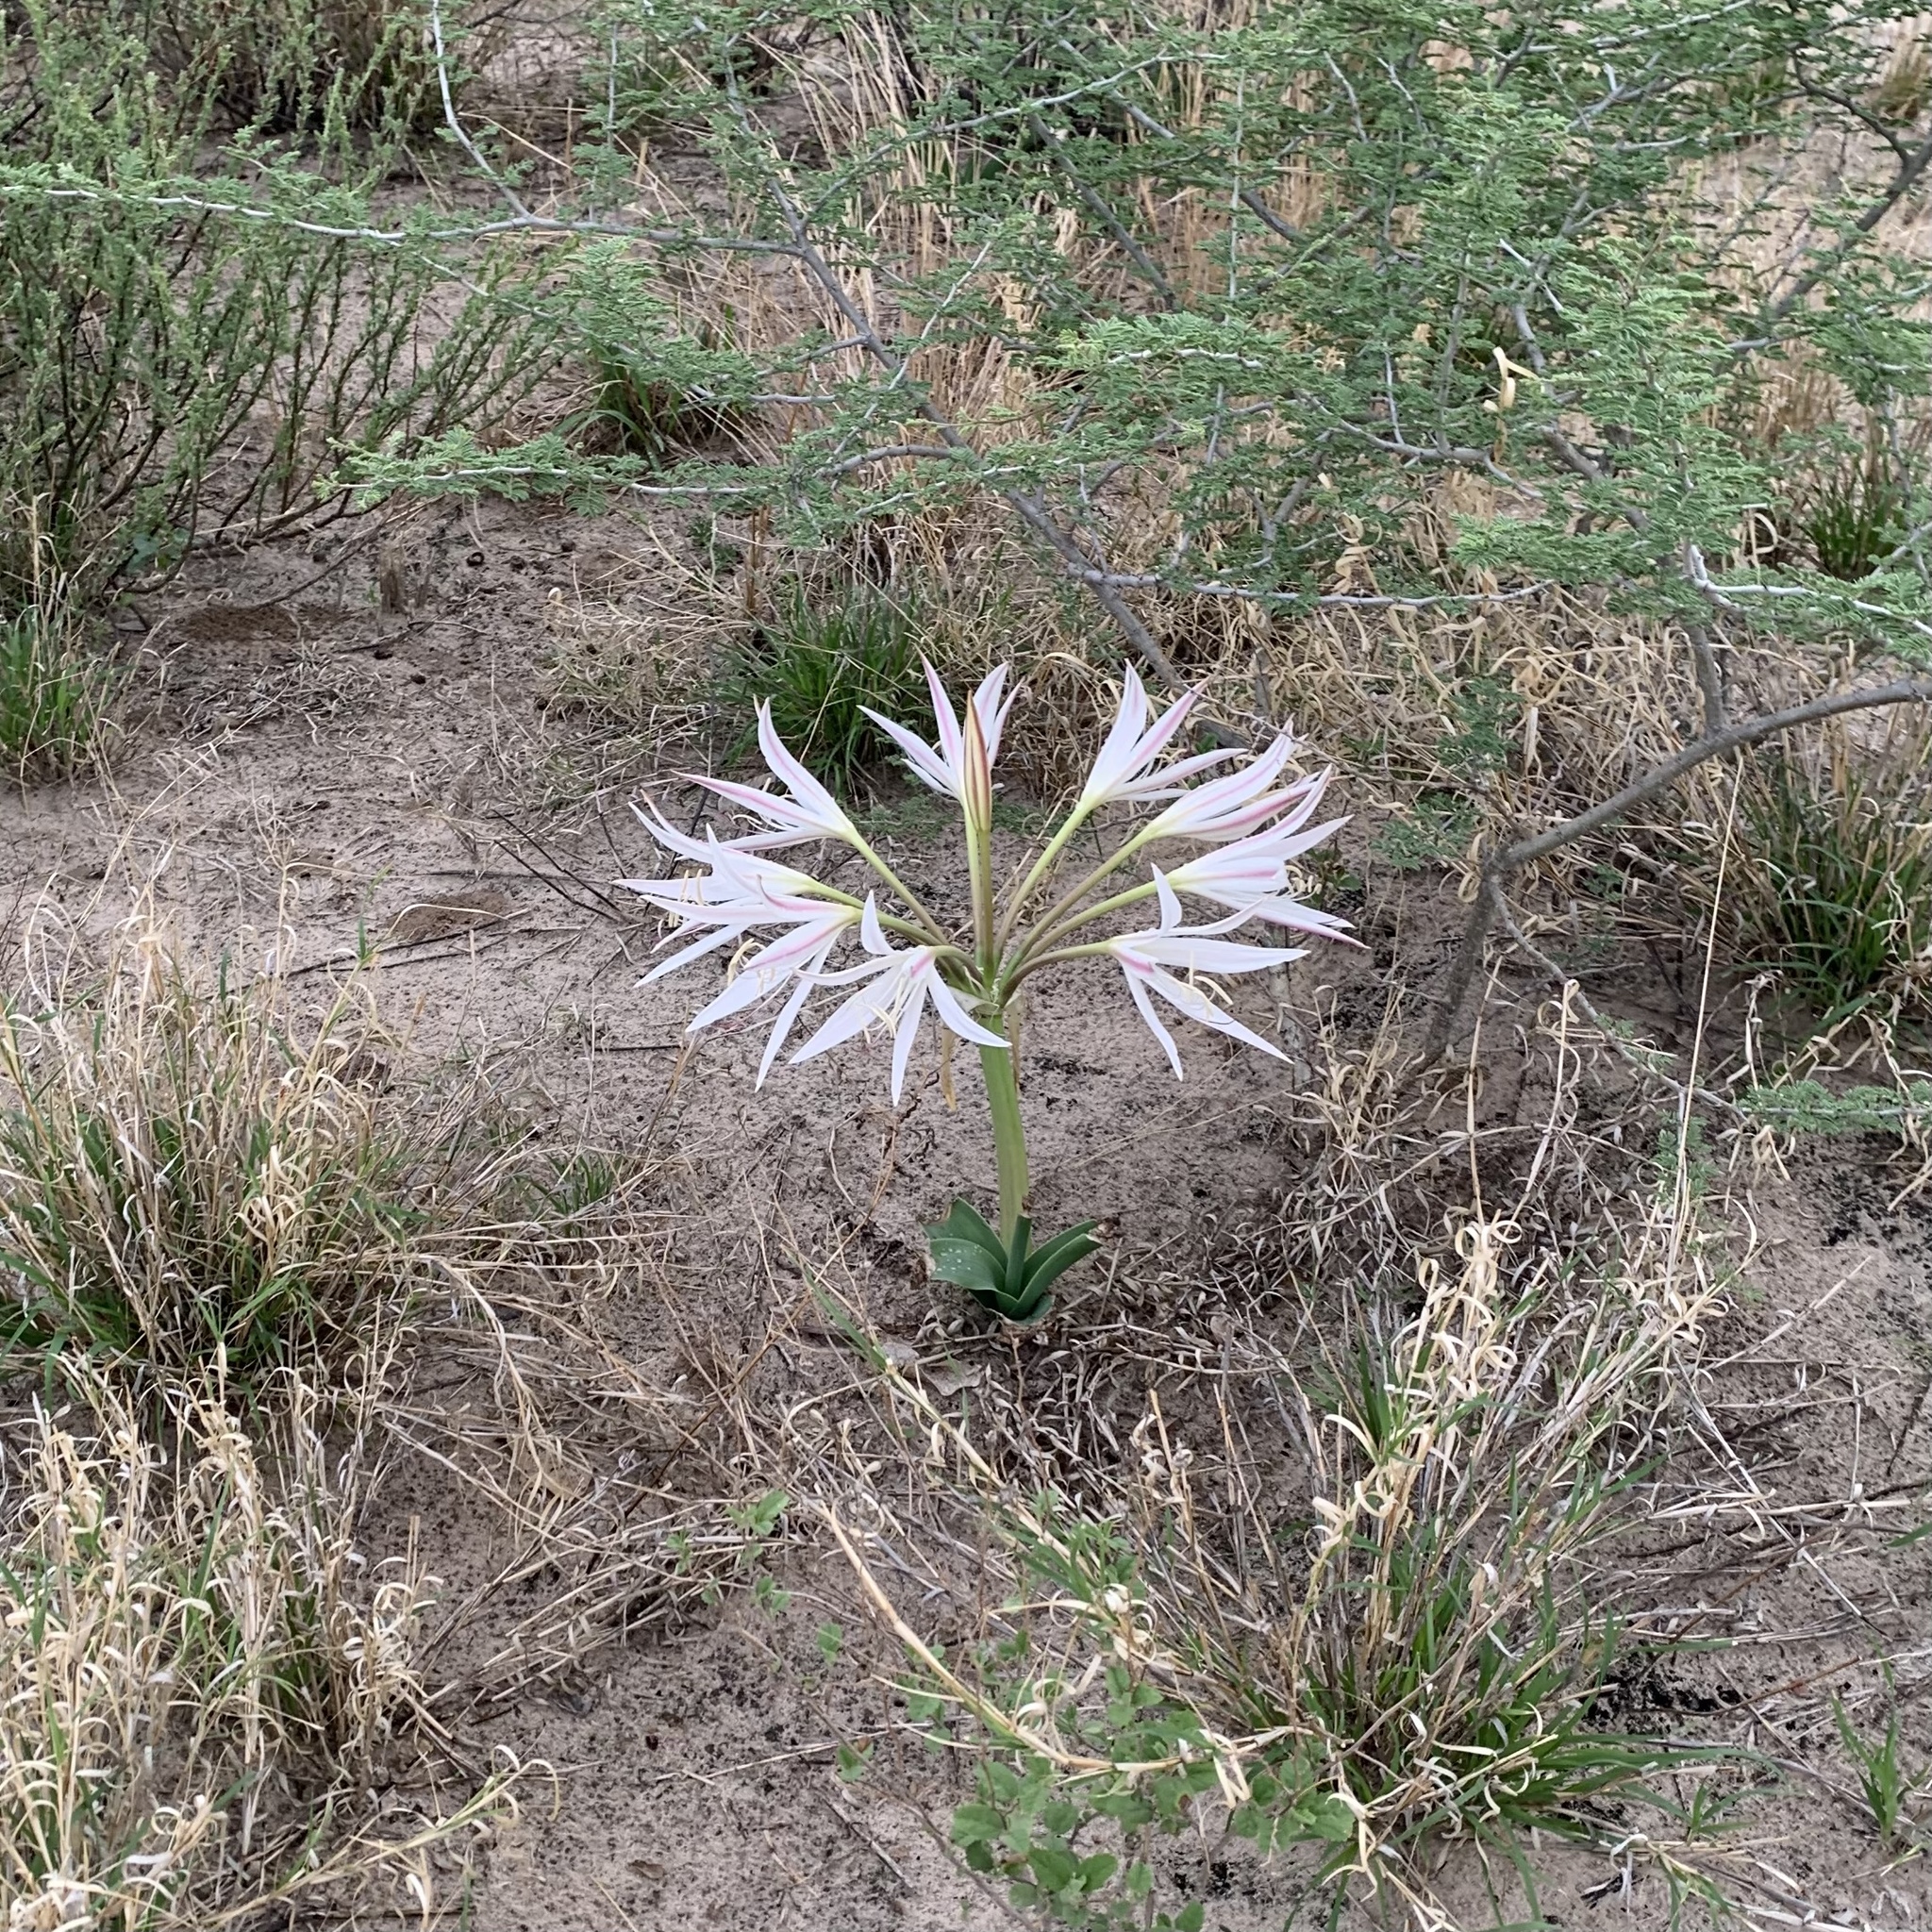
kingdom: Plantae
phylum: Tracheophyta
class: Liliopsida
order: Asparagales
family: Amaryllidaceae
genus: Crinum
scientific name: Crinum crassicaule
